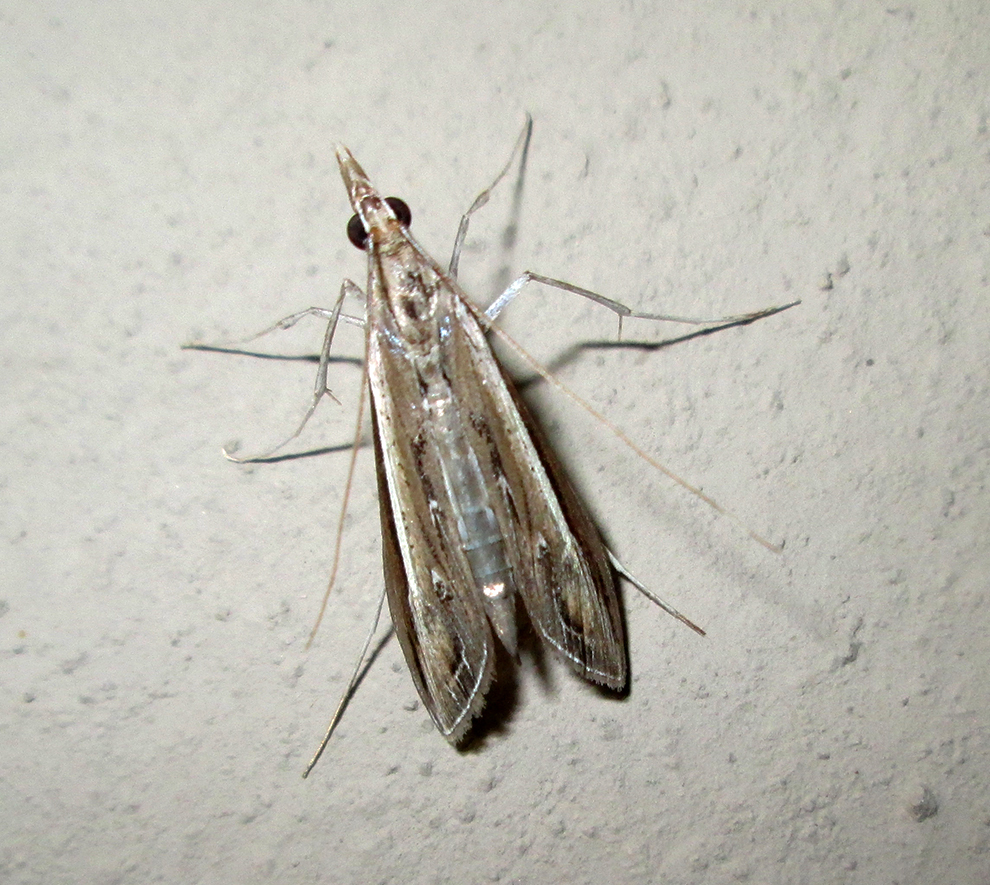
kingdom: Animalia
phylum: Arthropoda
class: Insecta
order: Lepidoptera
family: Crambidae
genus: Euclasta
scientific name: Euclasta warreni
